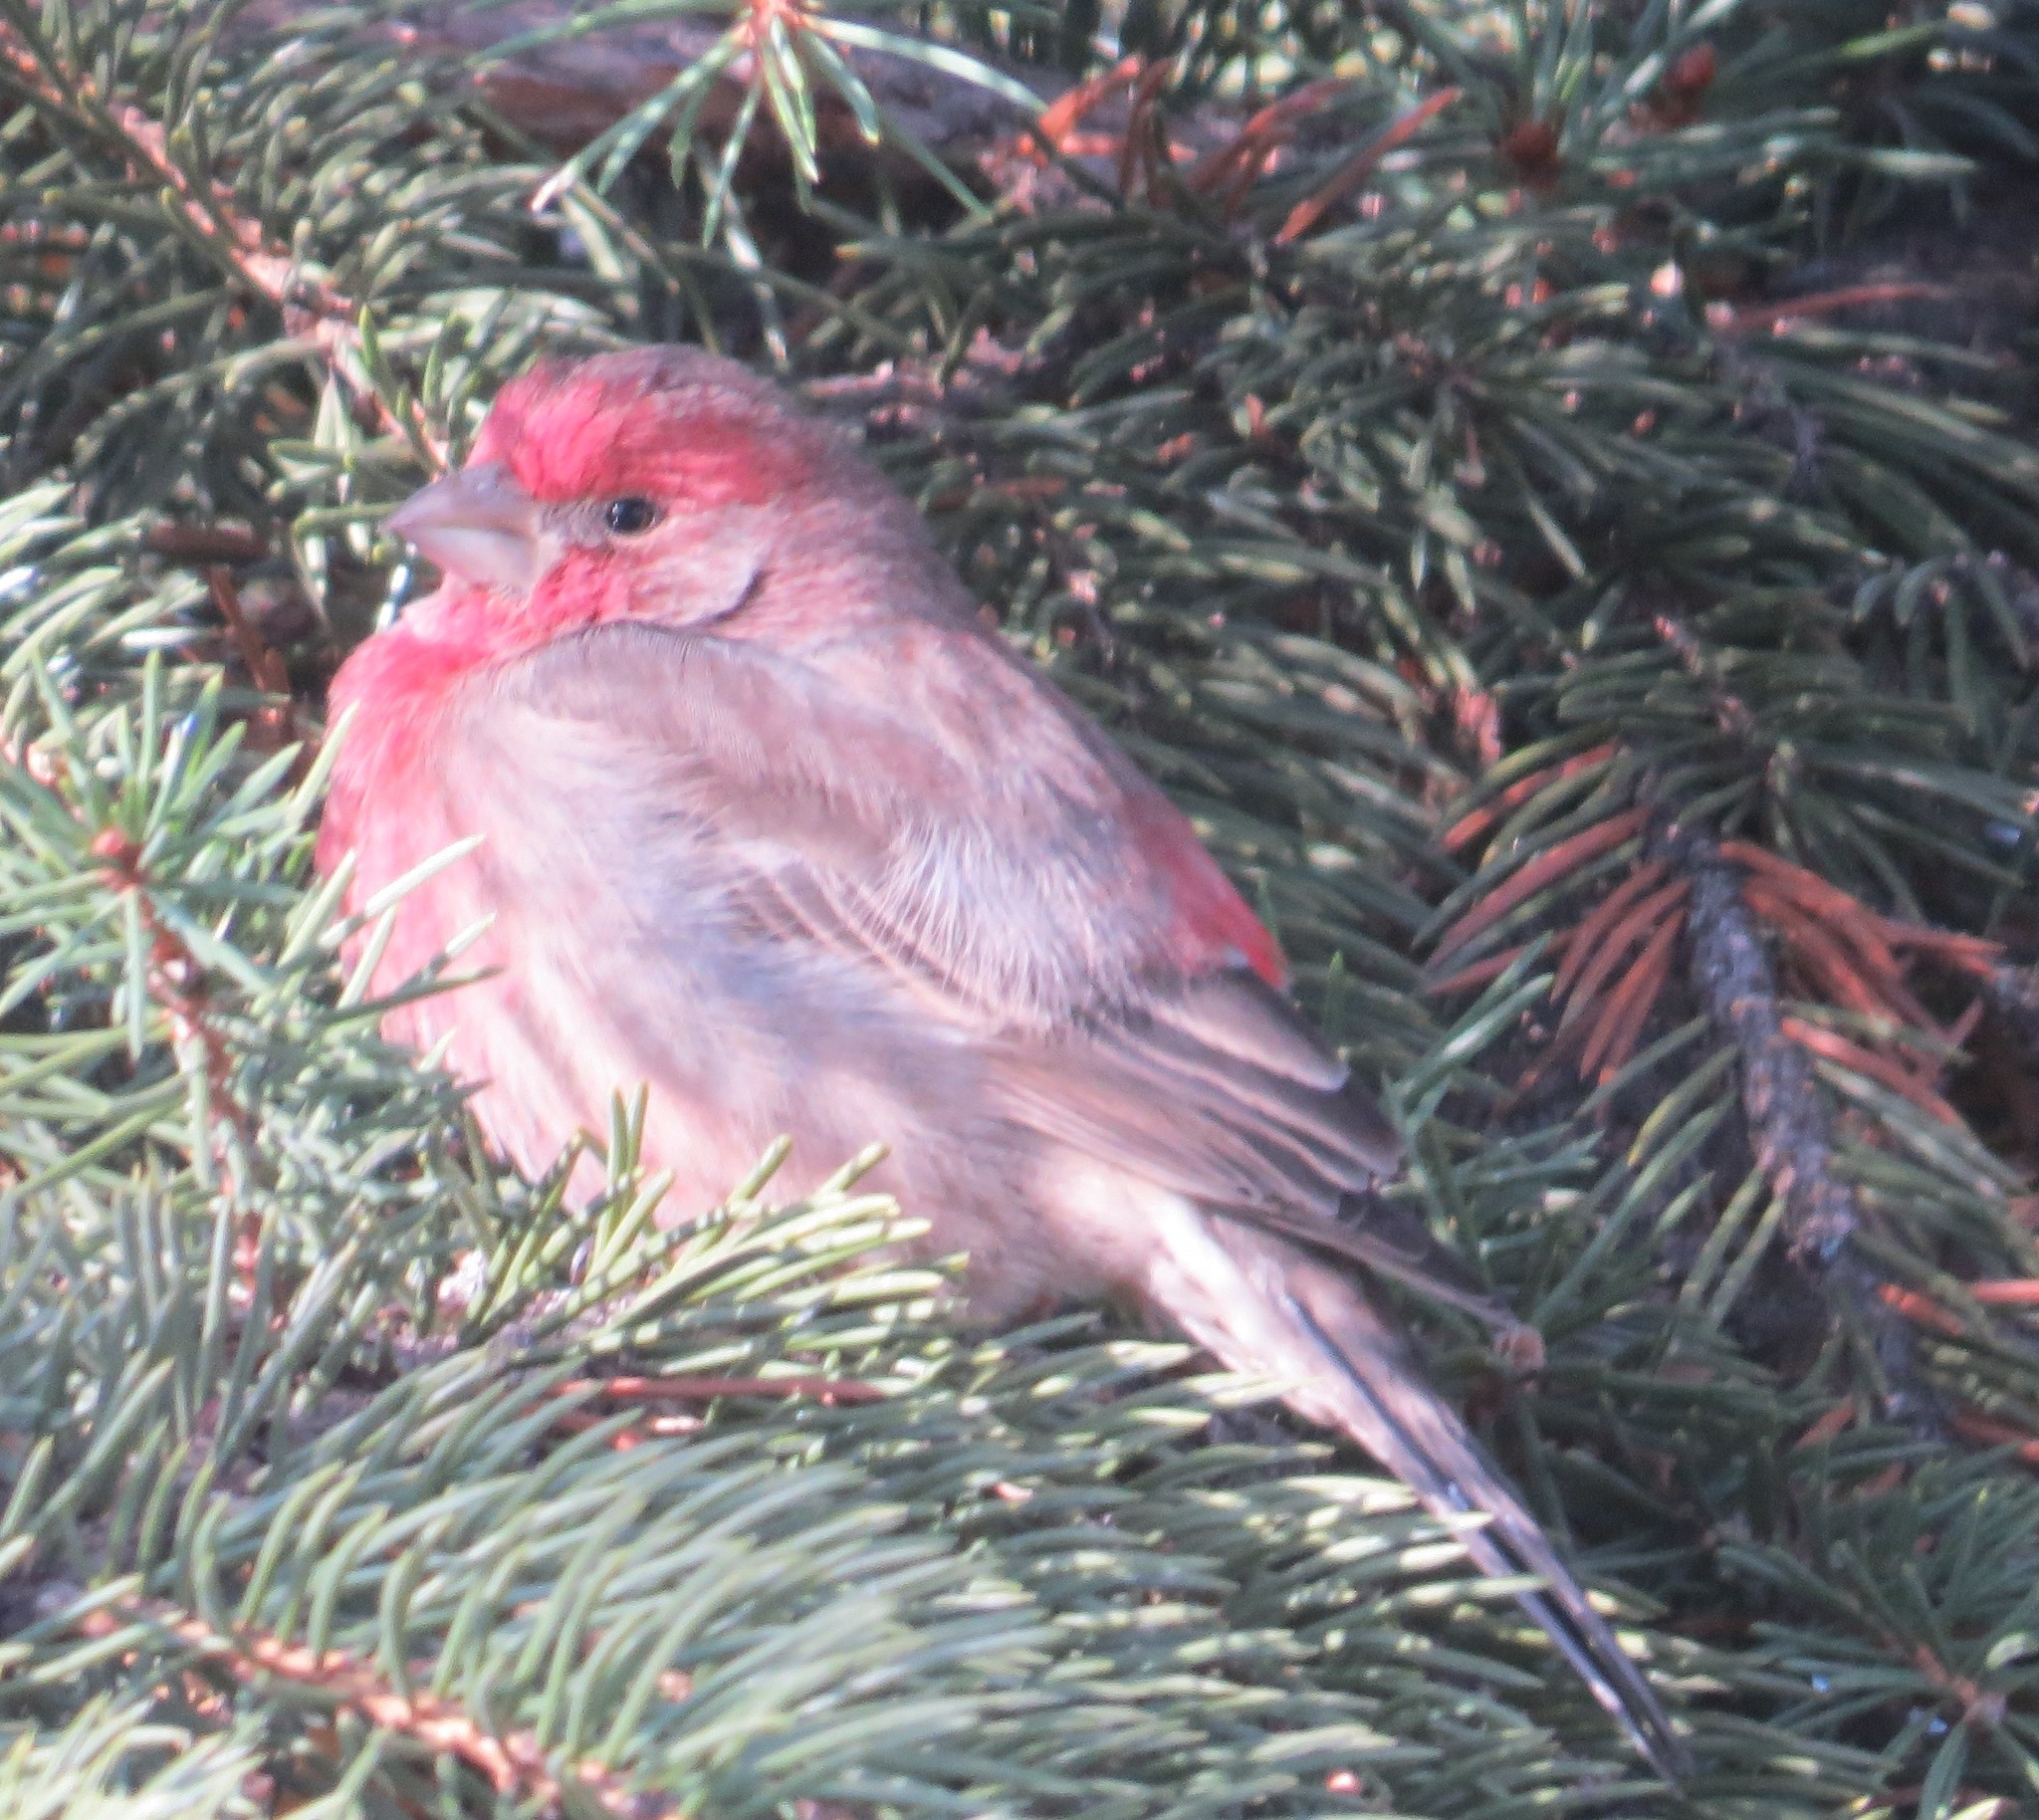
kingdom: Animalia
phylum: Chordata
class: Aves
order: Passeriformes
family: Fringillidae
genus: Haemorhous
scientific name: Haemorhous mexicanus
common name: House finch
